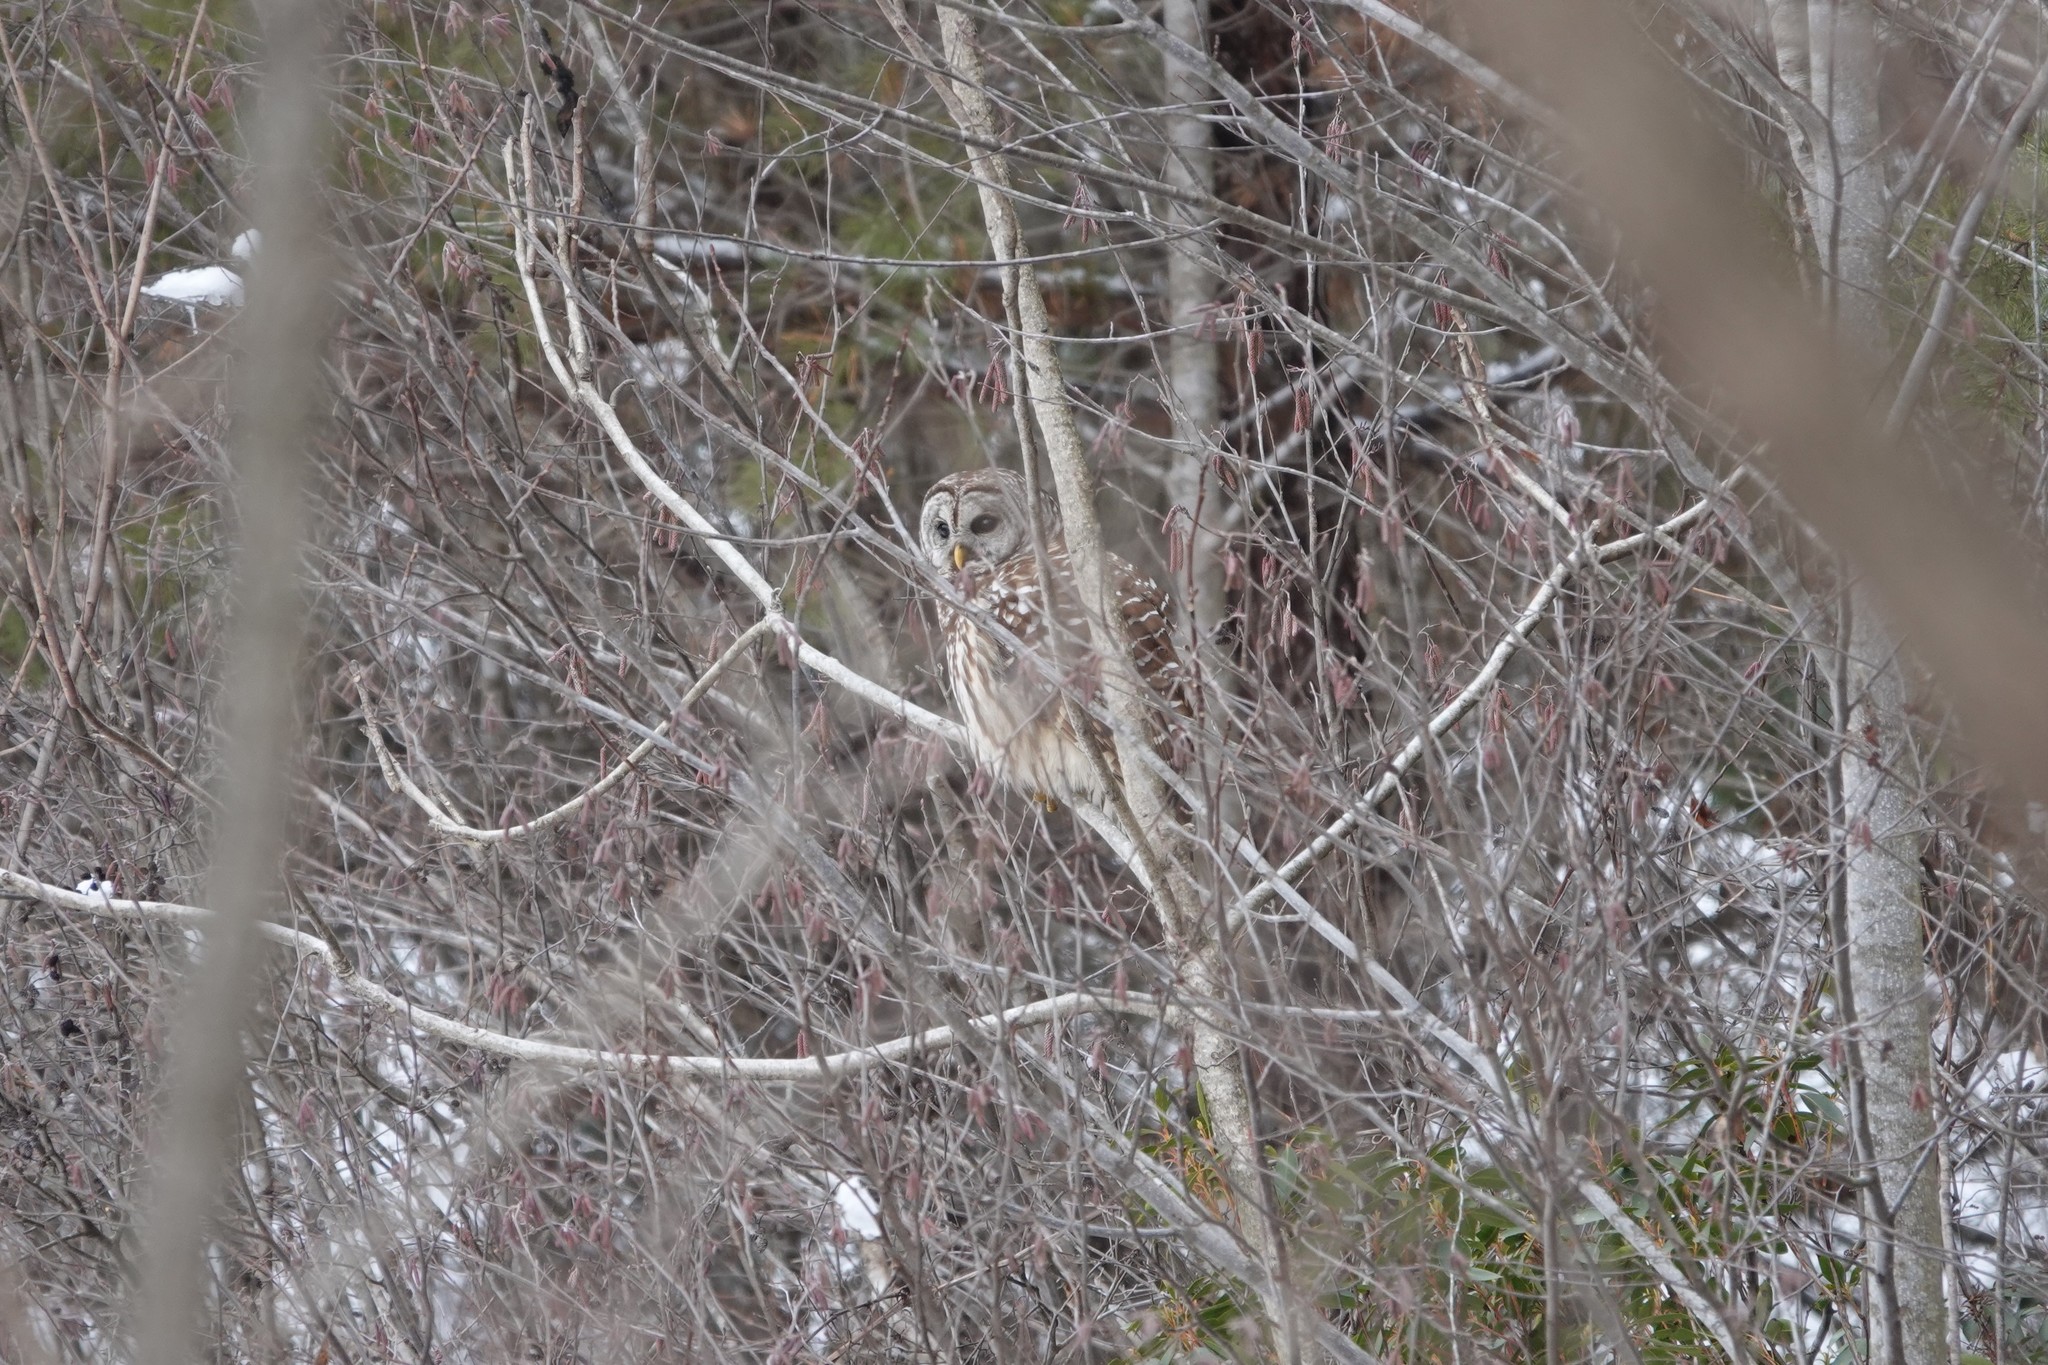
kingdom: Animalia
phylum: Chordata
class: Aves
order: Strigiformes
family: Strigidae
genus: Strix
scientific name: Strix varia
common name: Barred owl
